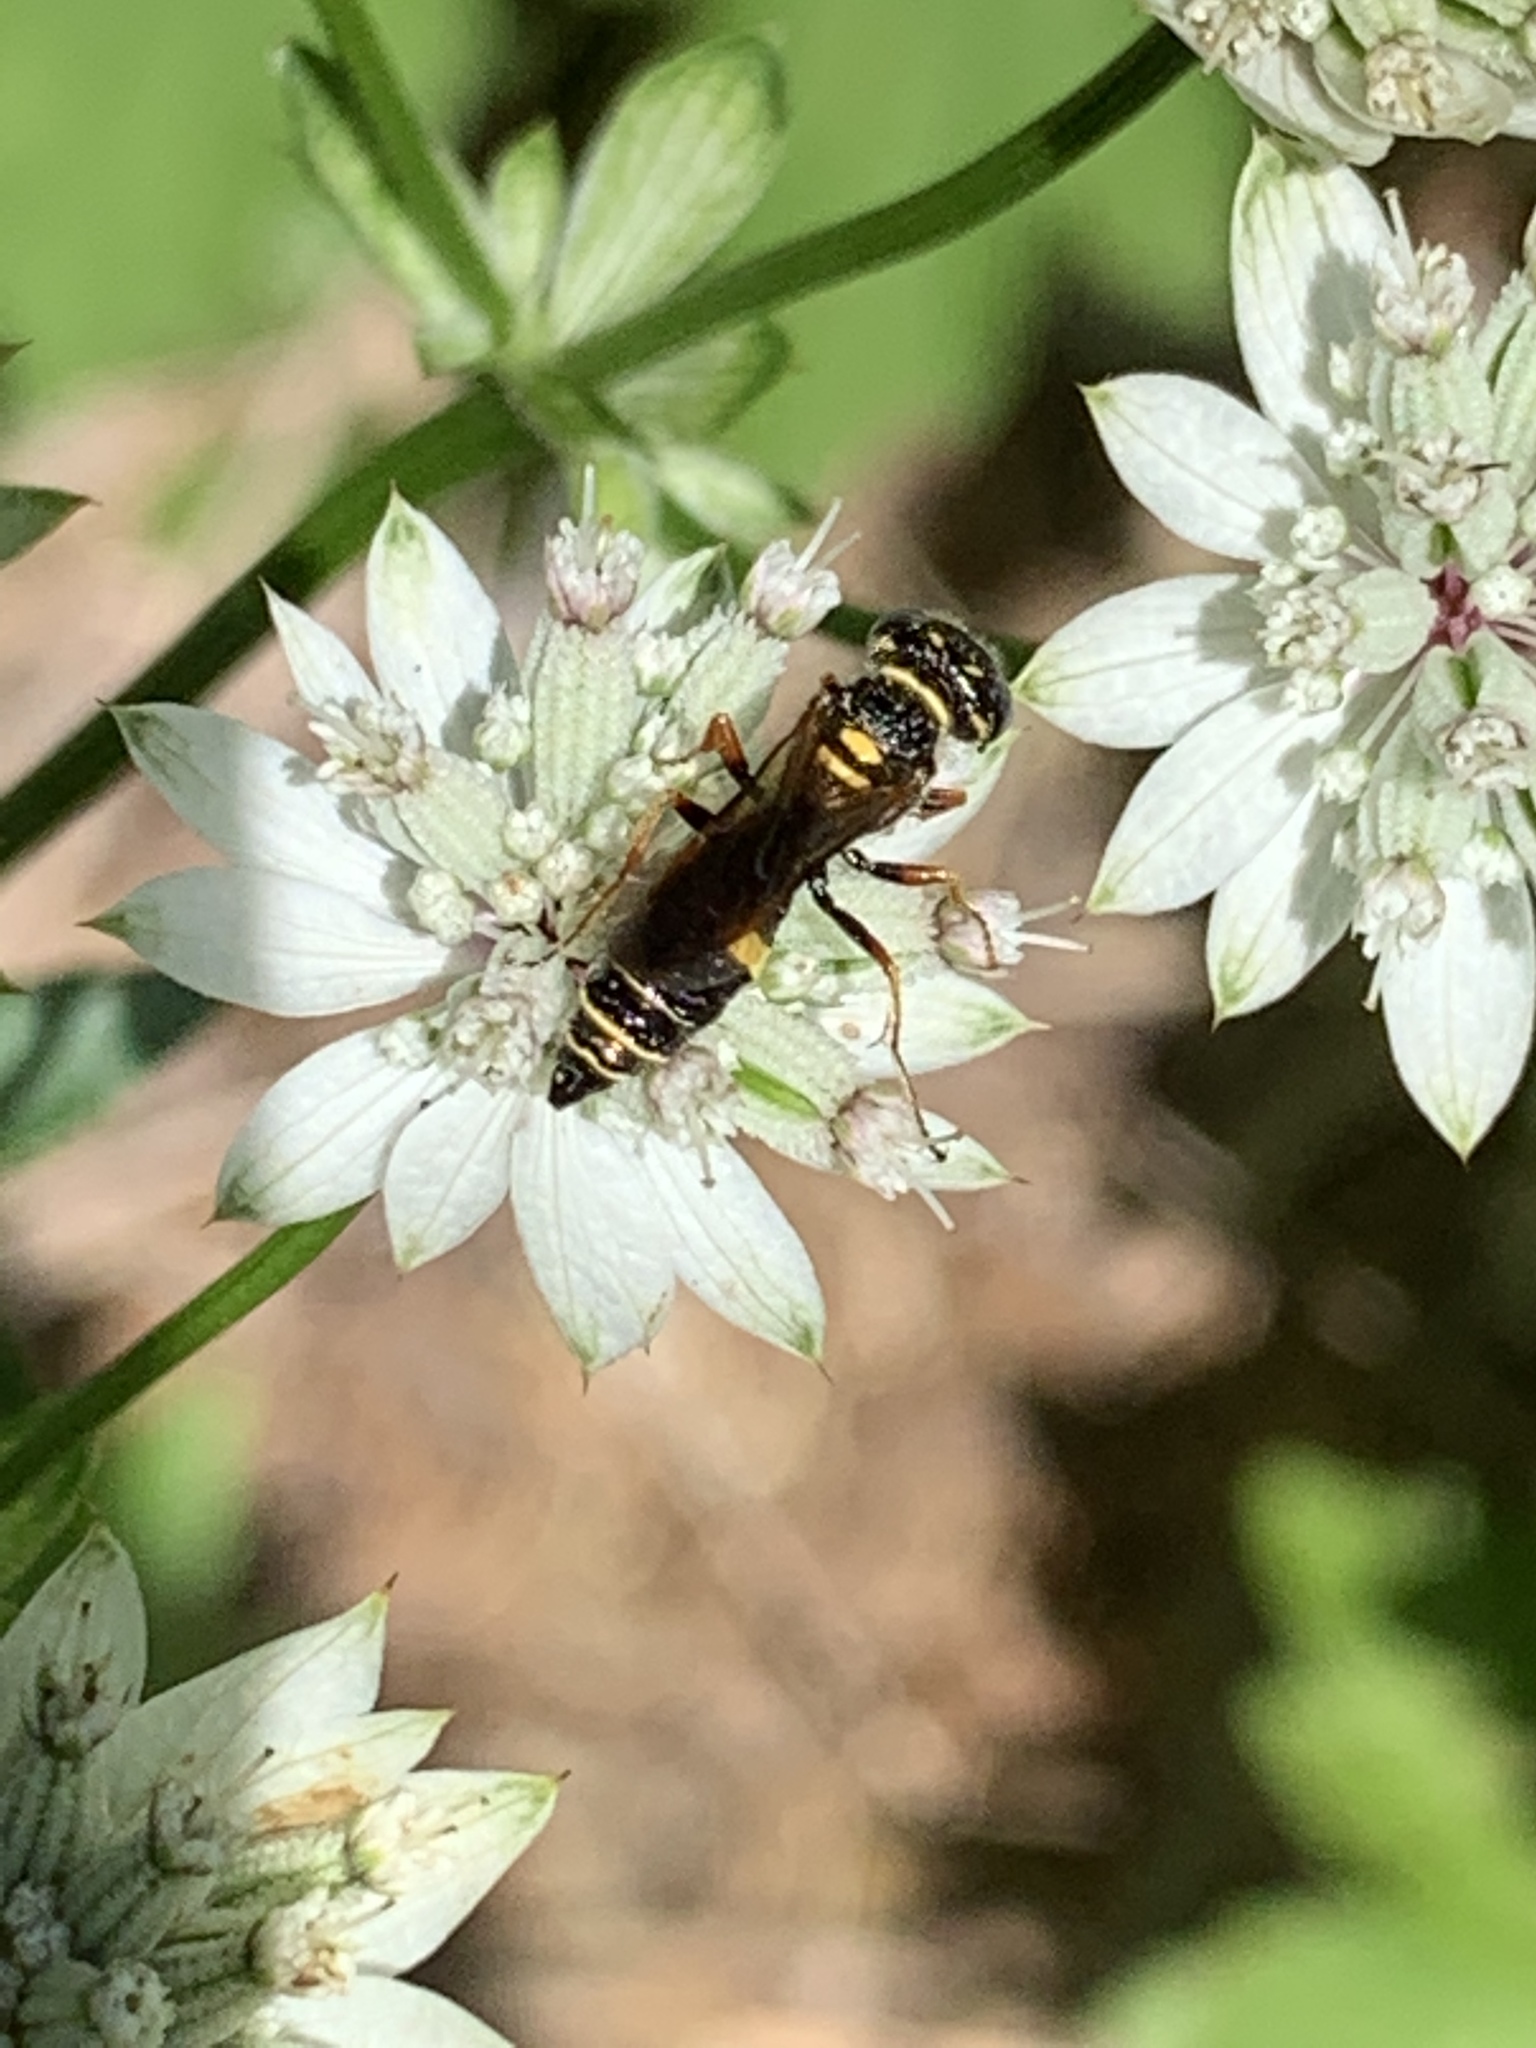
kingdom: Animalia
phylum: Arthropoda
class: Insecta
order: Hymenoptera
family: Crabronidae
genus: Philanthus
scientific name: Philanthus gibbosus
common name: Humped beewolf
